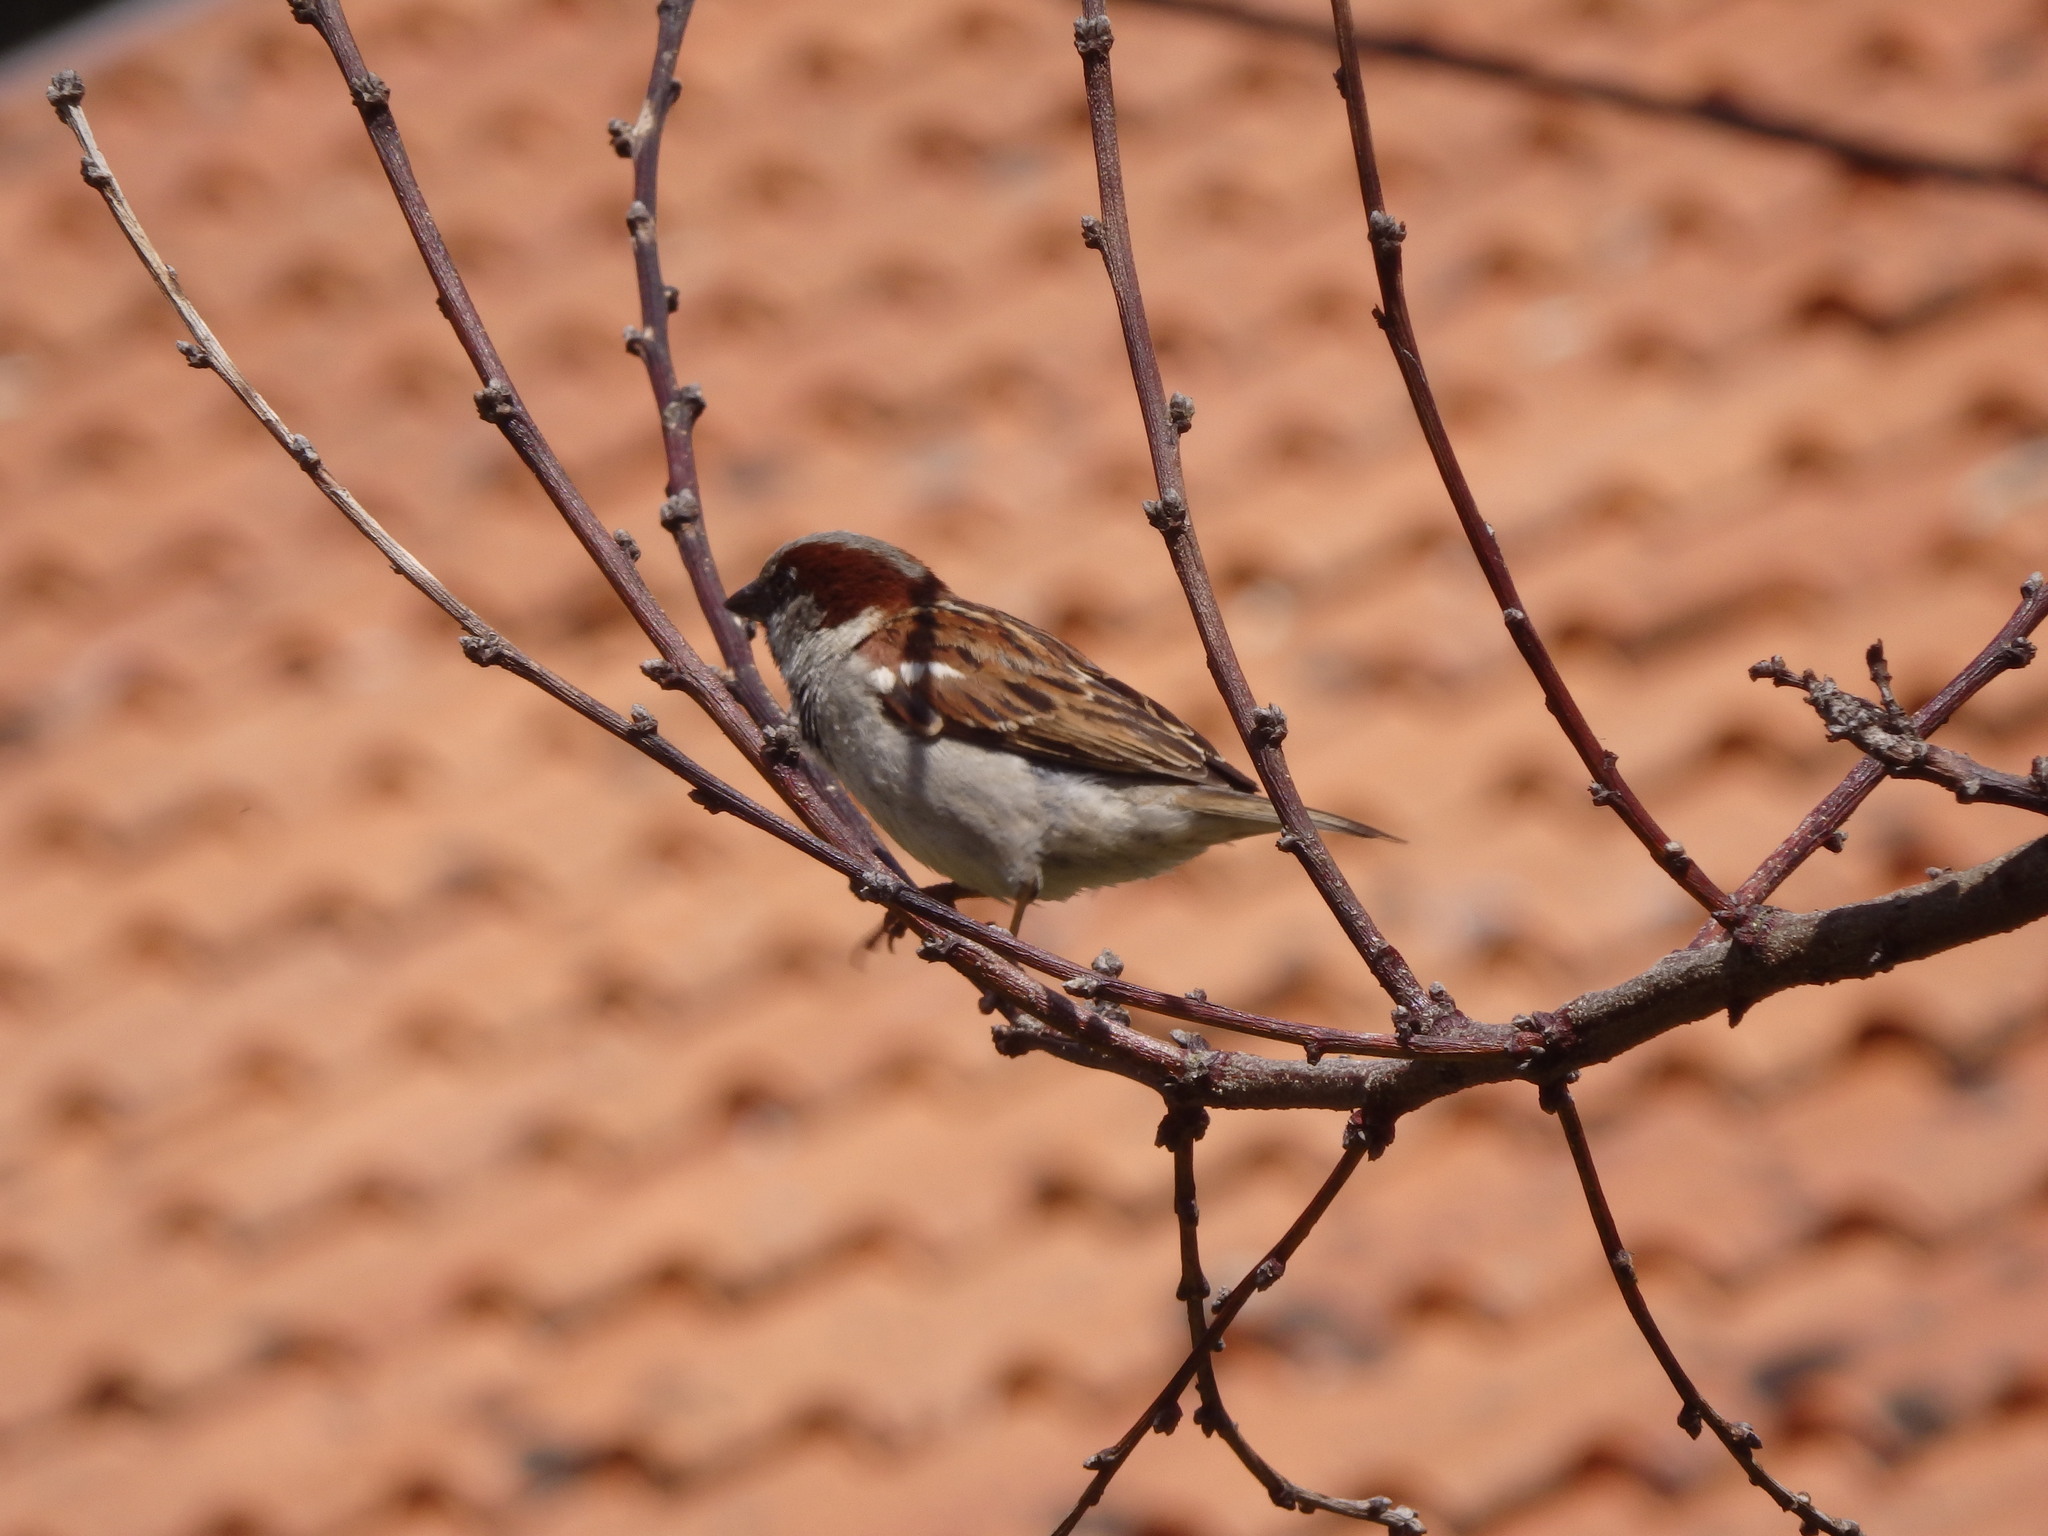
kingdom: Animalia
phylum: Chordata
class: Aves
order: Passeriformes
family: Passeridae
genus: Passer
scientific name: Passer domesticus
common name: House sparrow
